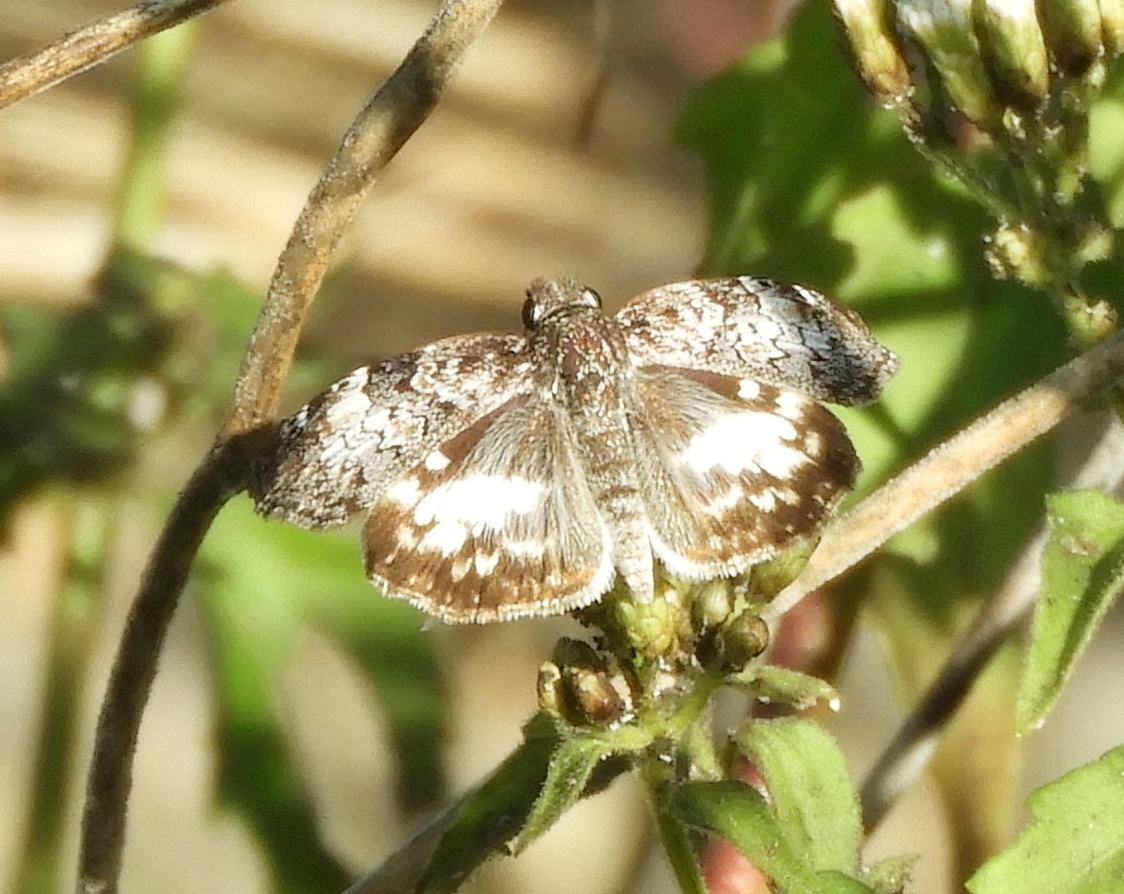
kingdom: Animalia
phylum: Arthropoda
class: Insecta
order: Lepidoptera
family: Hesperiidae
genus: Chiothion
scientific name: Chiothion georgina
